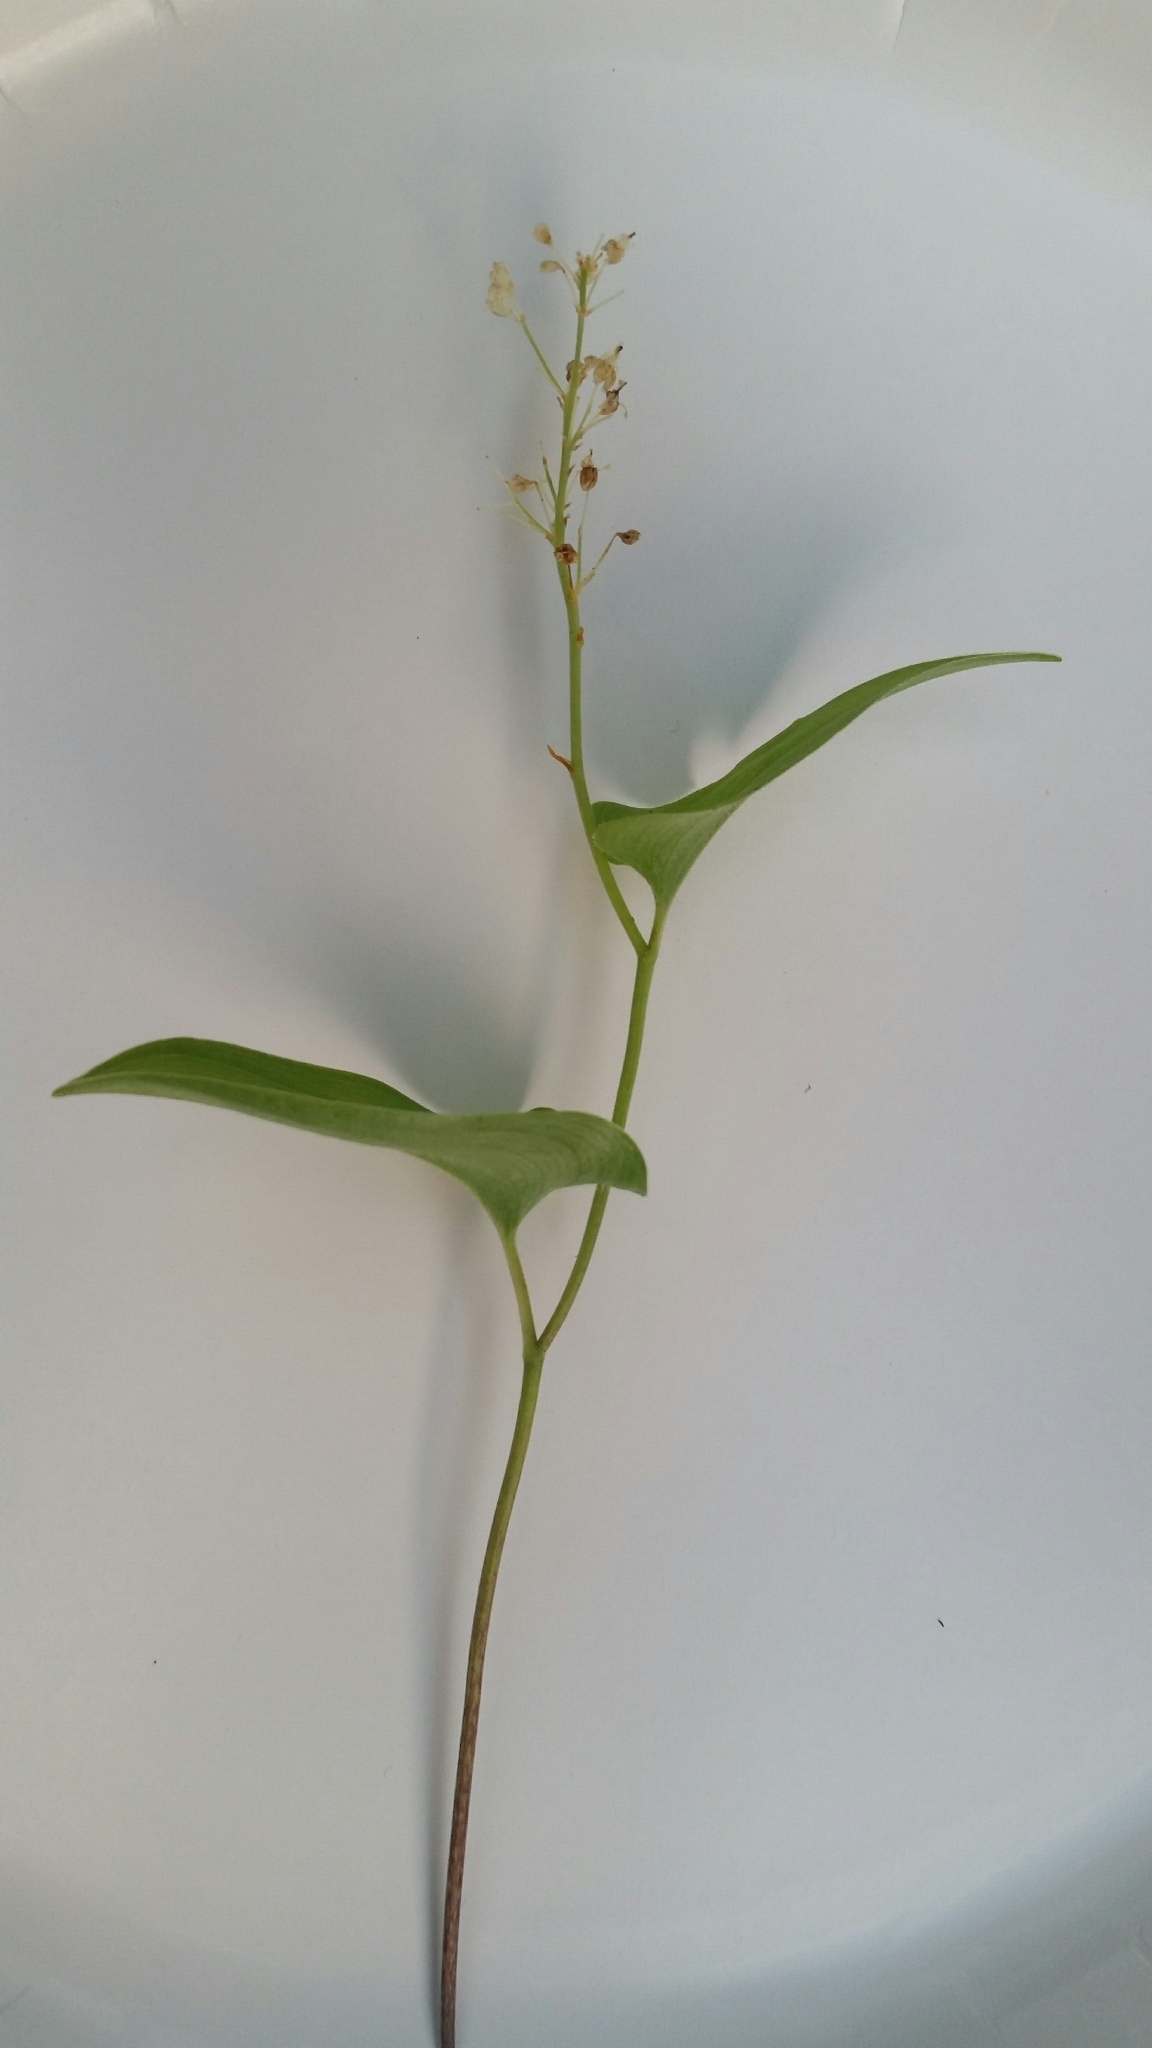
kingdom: Plantae
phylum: Tracheophyta
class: Liliopsida
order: Asparagales
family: Asparagaceae
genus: Maianthemum
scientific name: Maianthemum bifolium
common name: May lily
